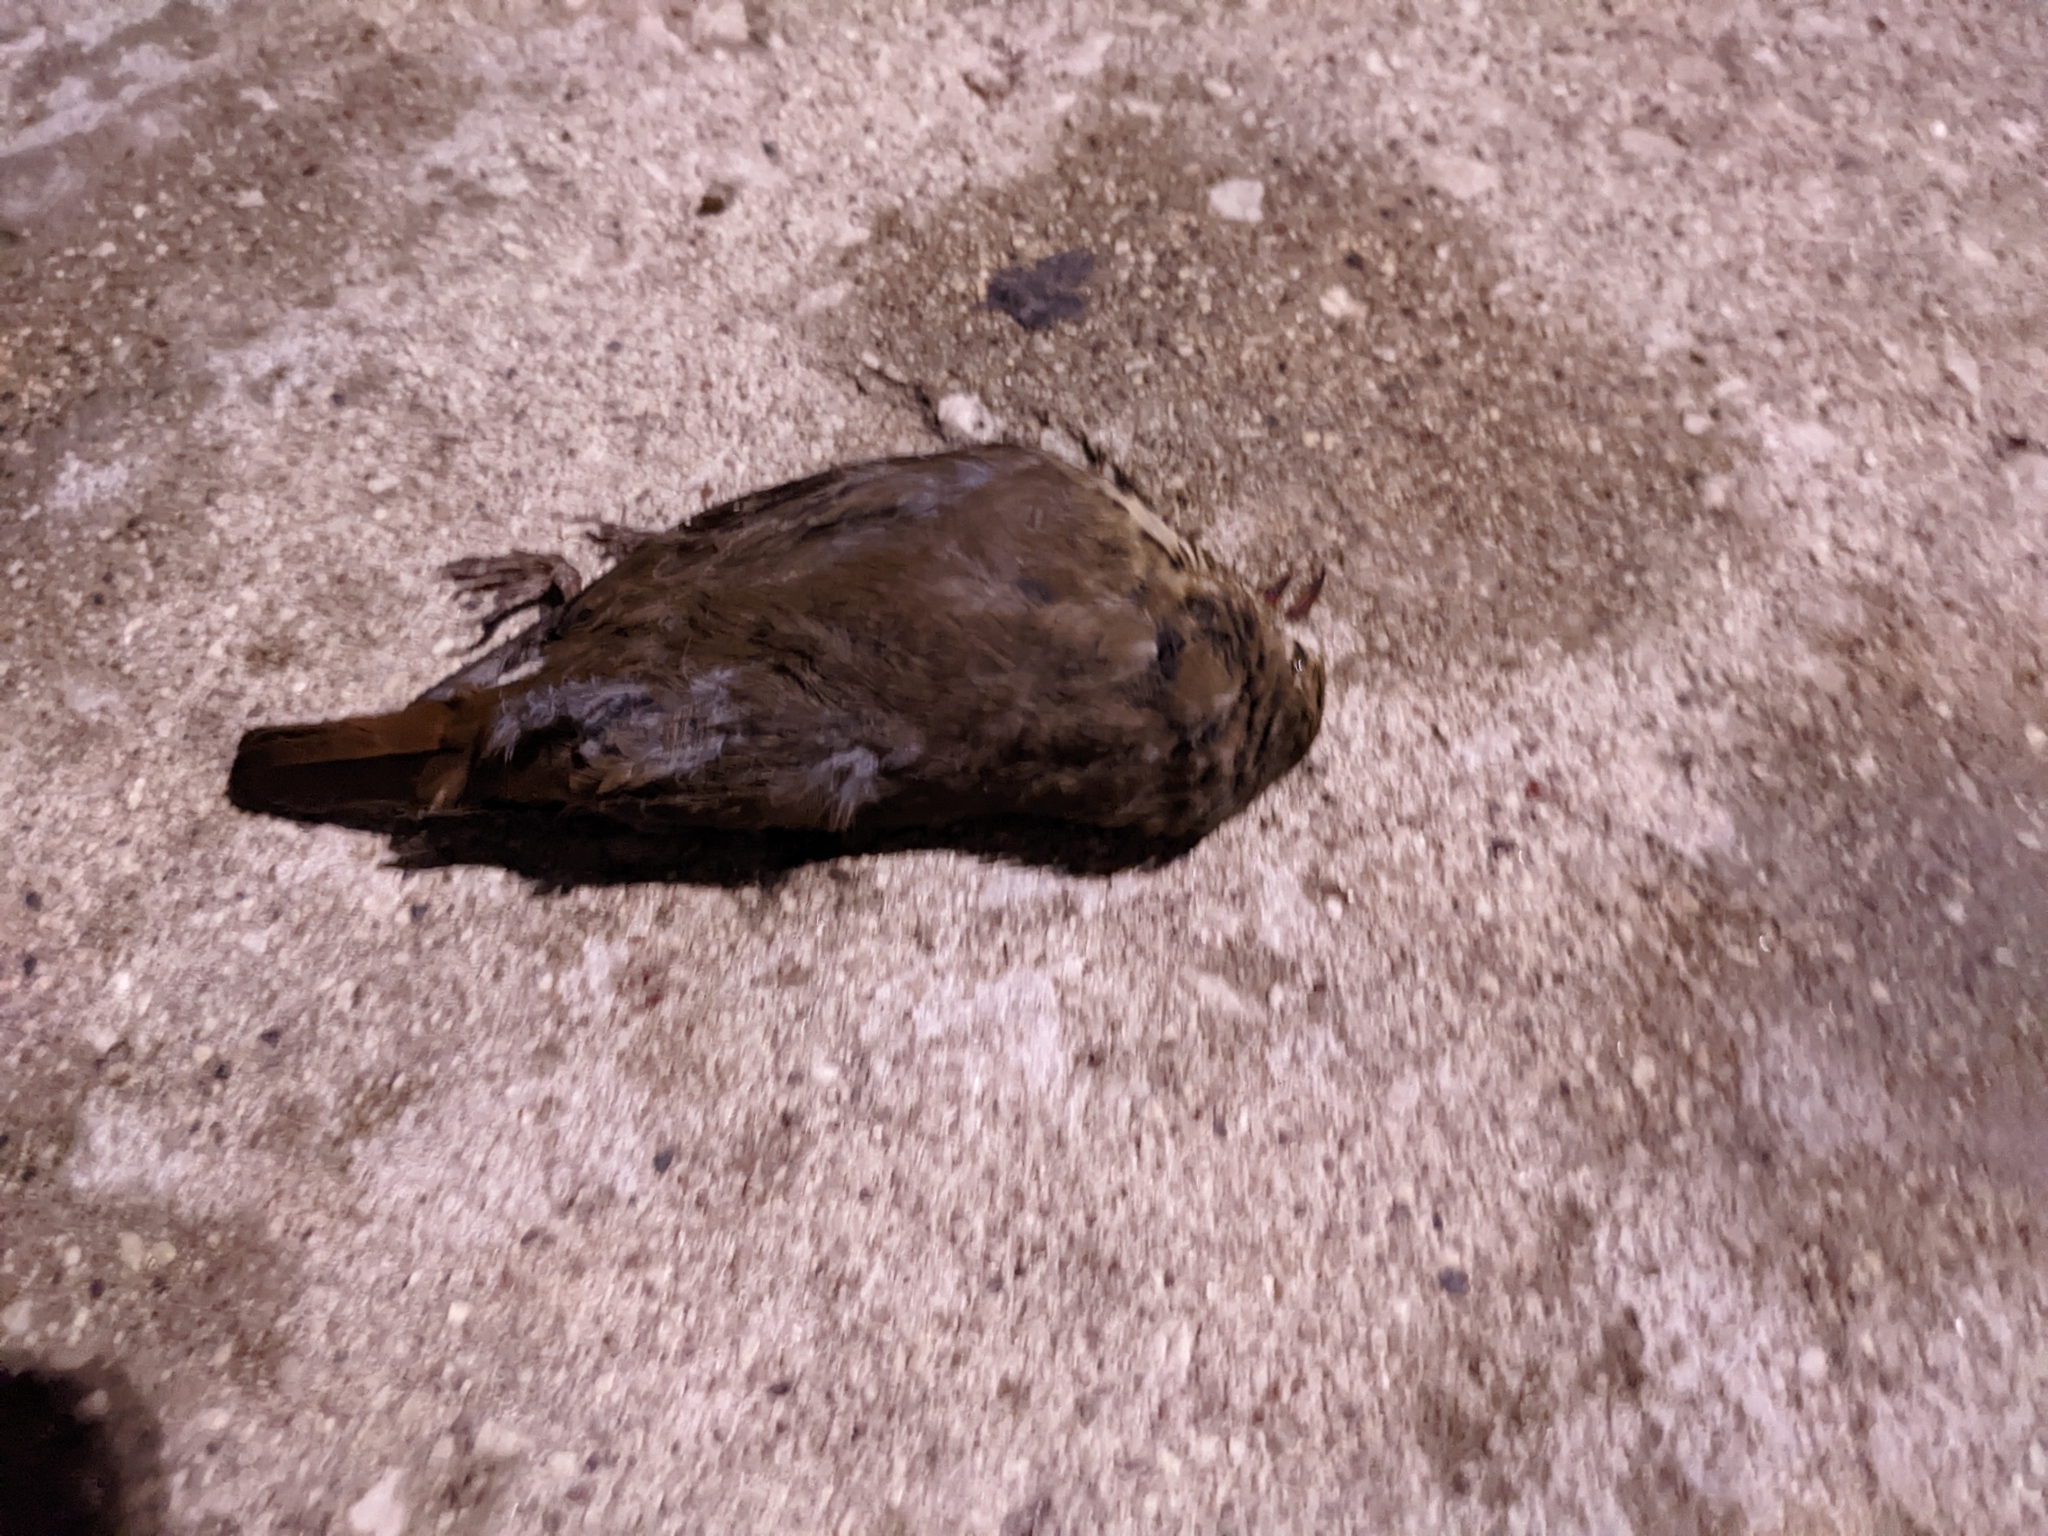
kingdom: Animalia
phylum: Chordata
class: Aves
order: Passeriformes
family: Turdidae
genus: Catharus
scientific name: Catharus guttatus
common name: Hermit thrush
